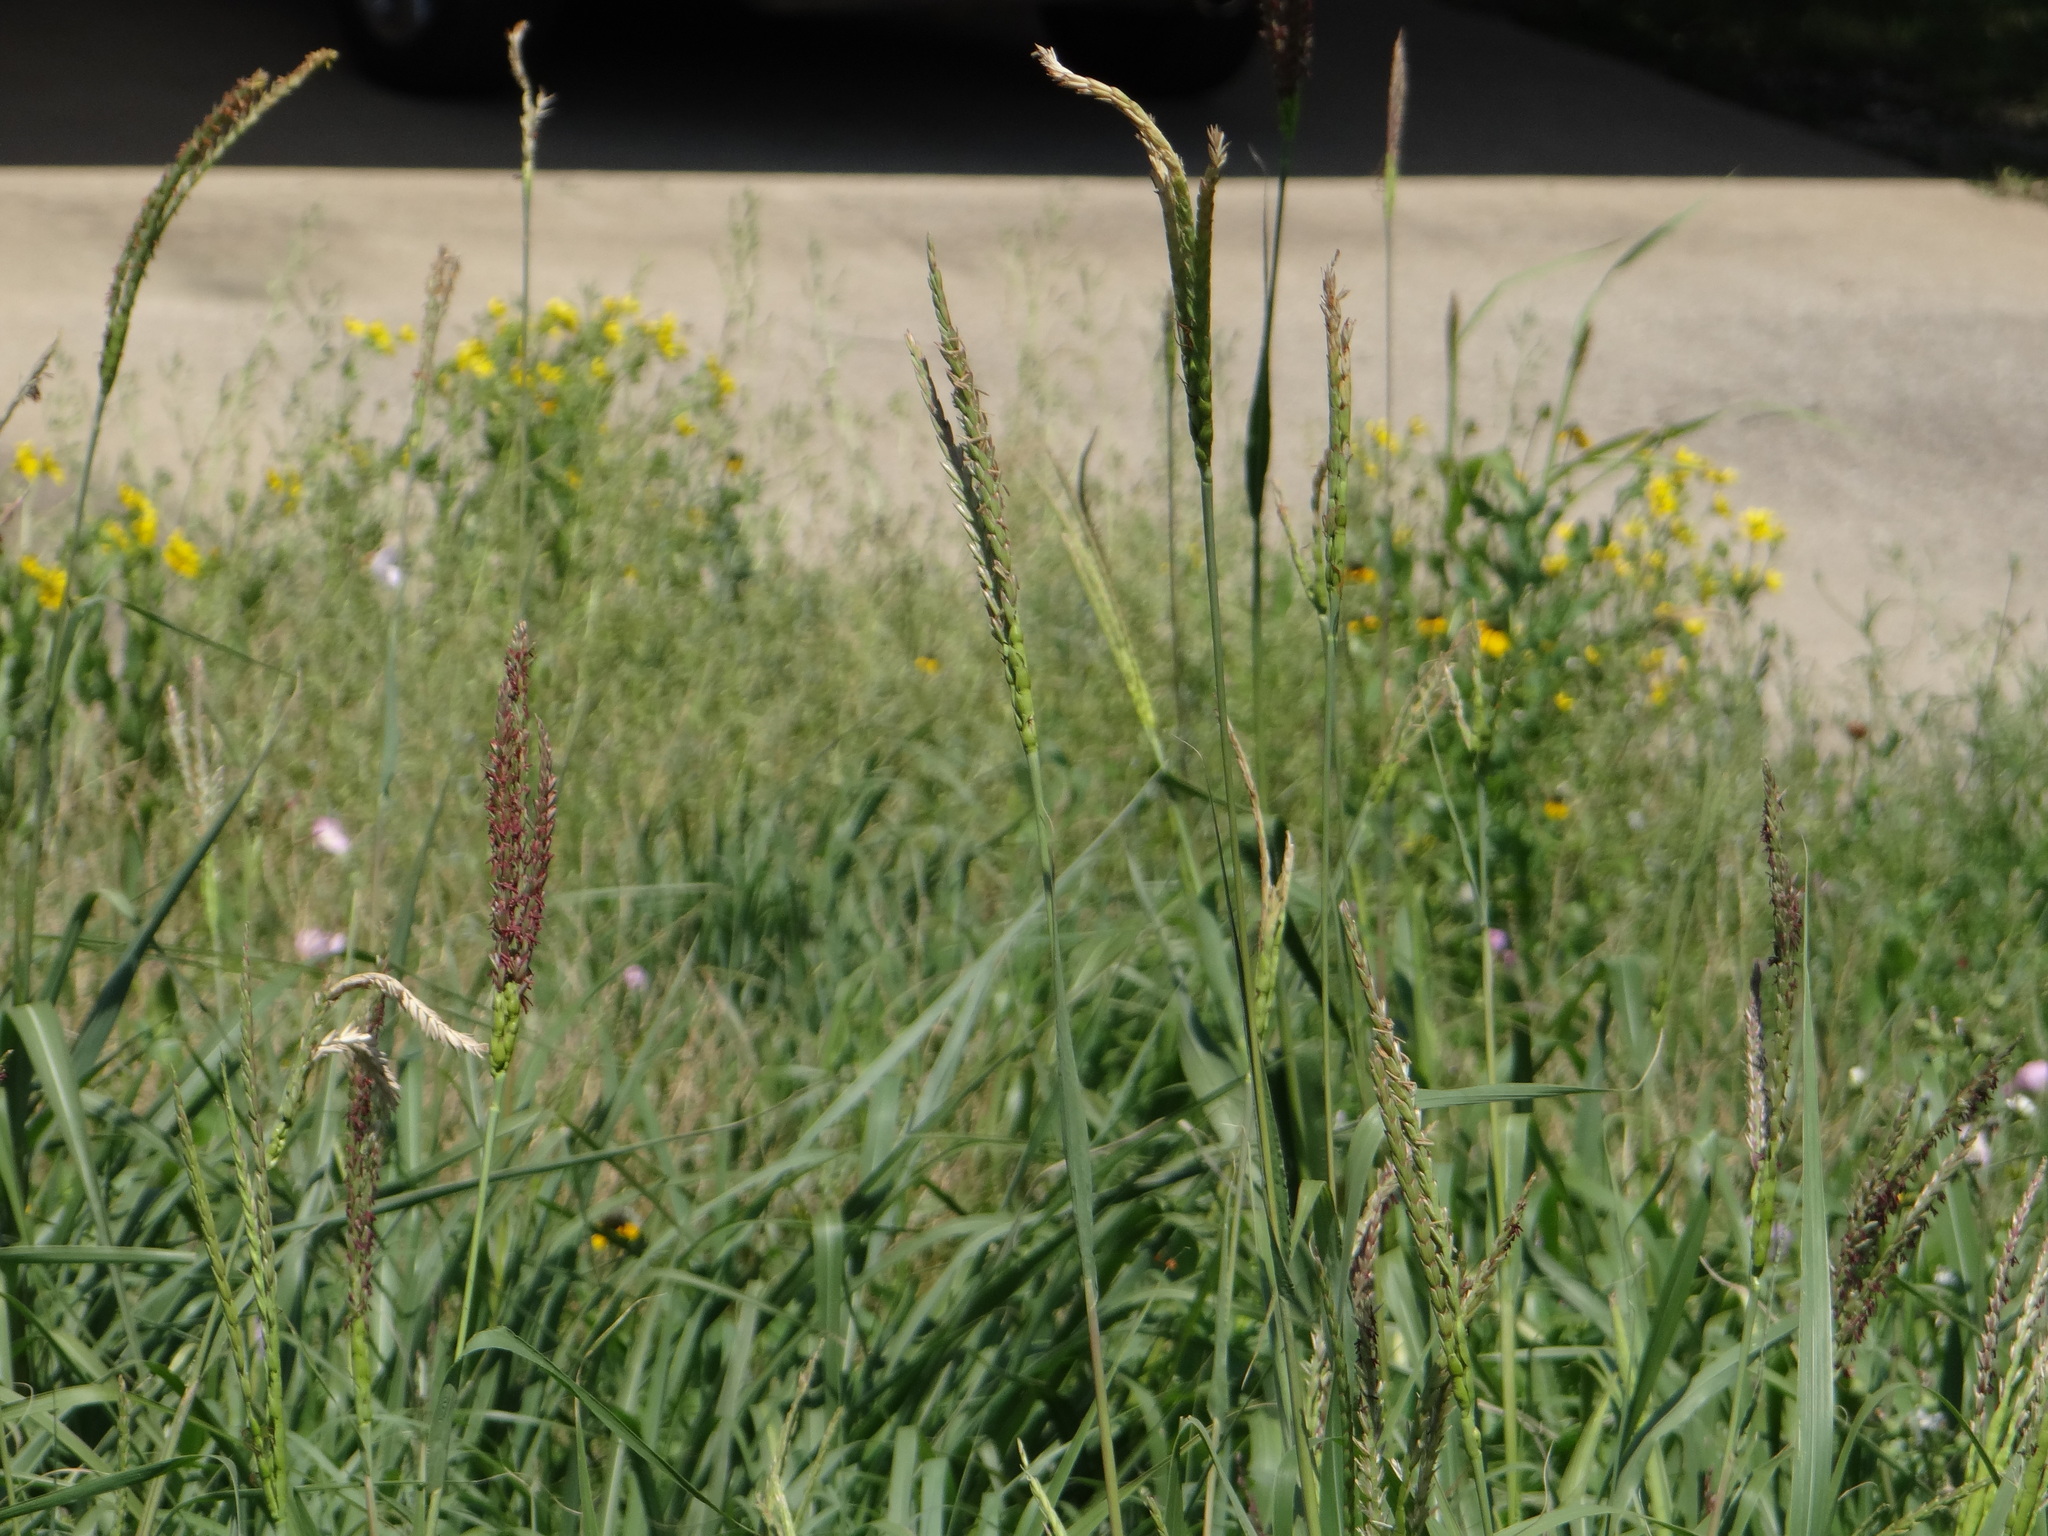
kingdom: Plantae
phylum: Tracheophyta
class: Liliopsida
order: Poales
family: Poaceae
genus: Tripsacum
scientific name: Tripsacum dactyloides
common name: Buffalo-grass
